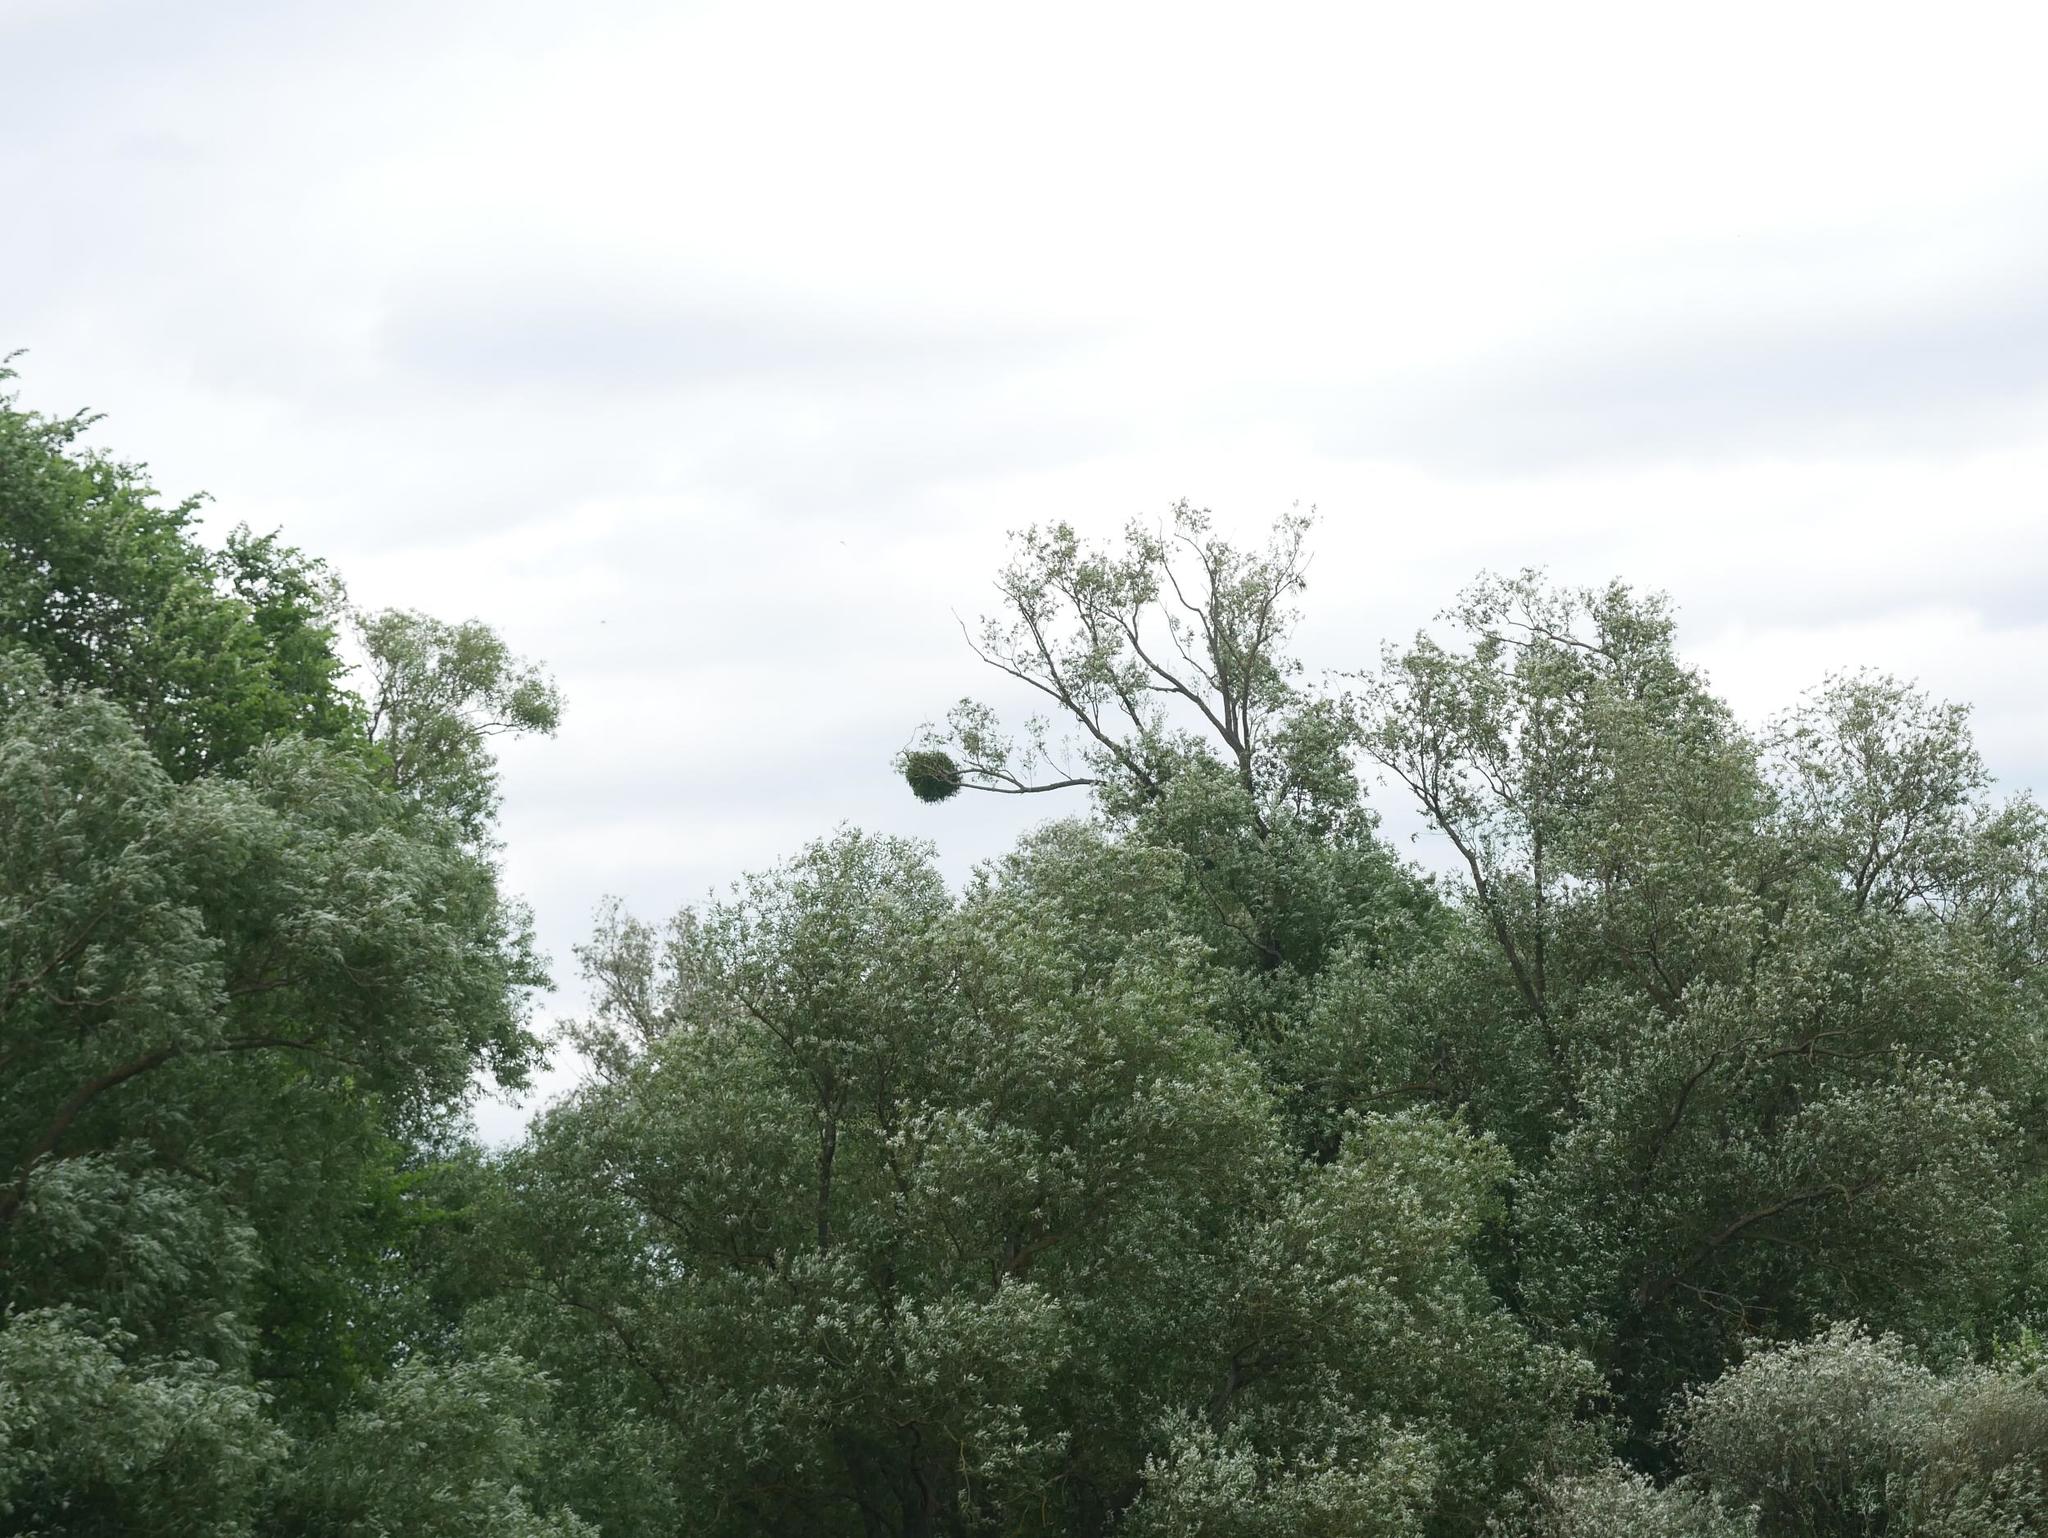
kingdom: Plantae
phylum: Tracheophyta
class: Magnoliopsida
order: Santalales
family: Viscaceae
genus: Viscum
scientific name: Viscum album
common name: Mistletoe
